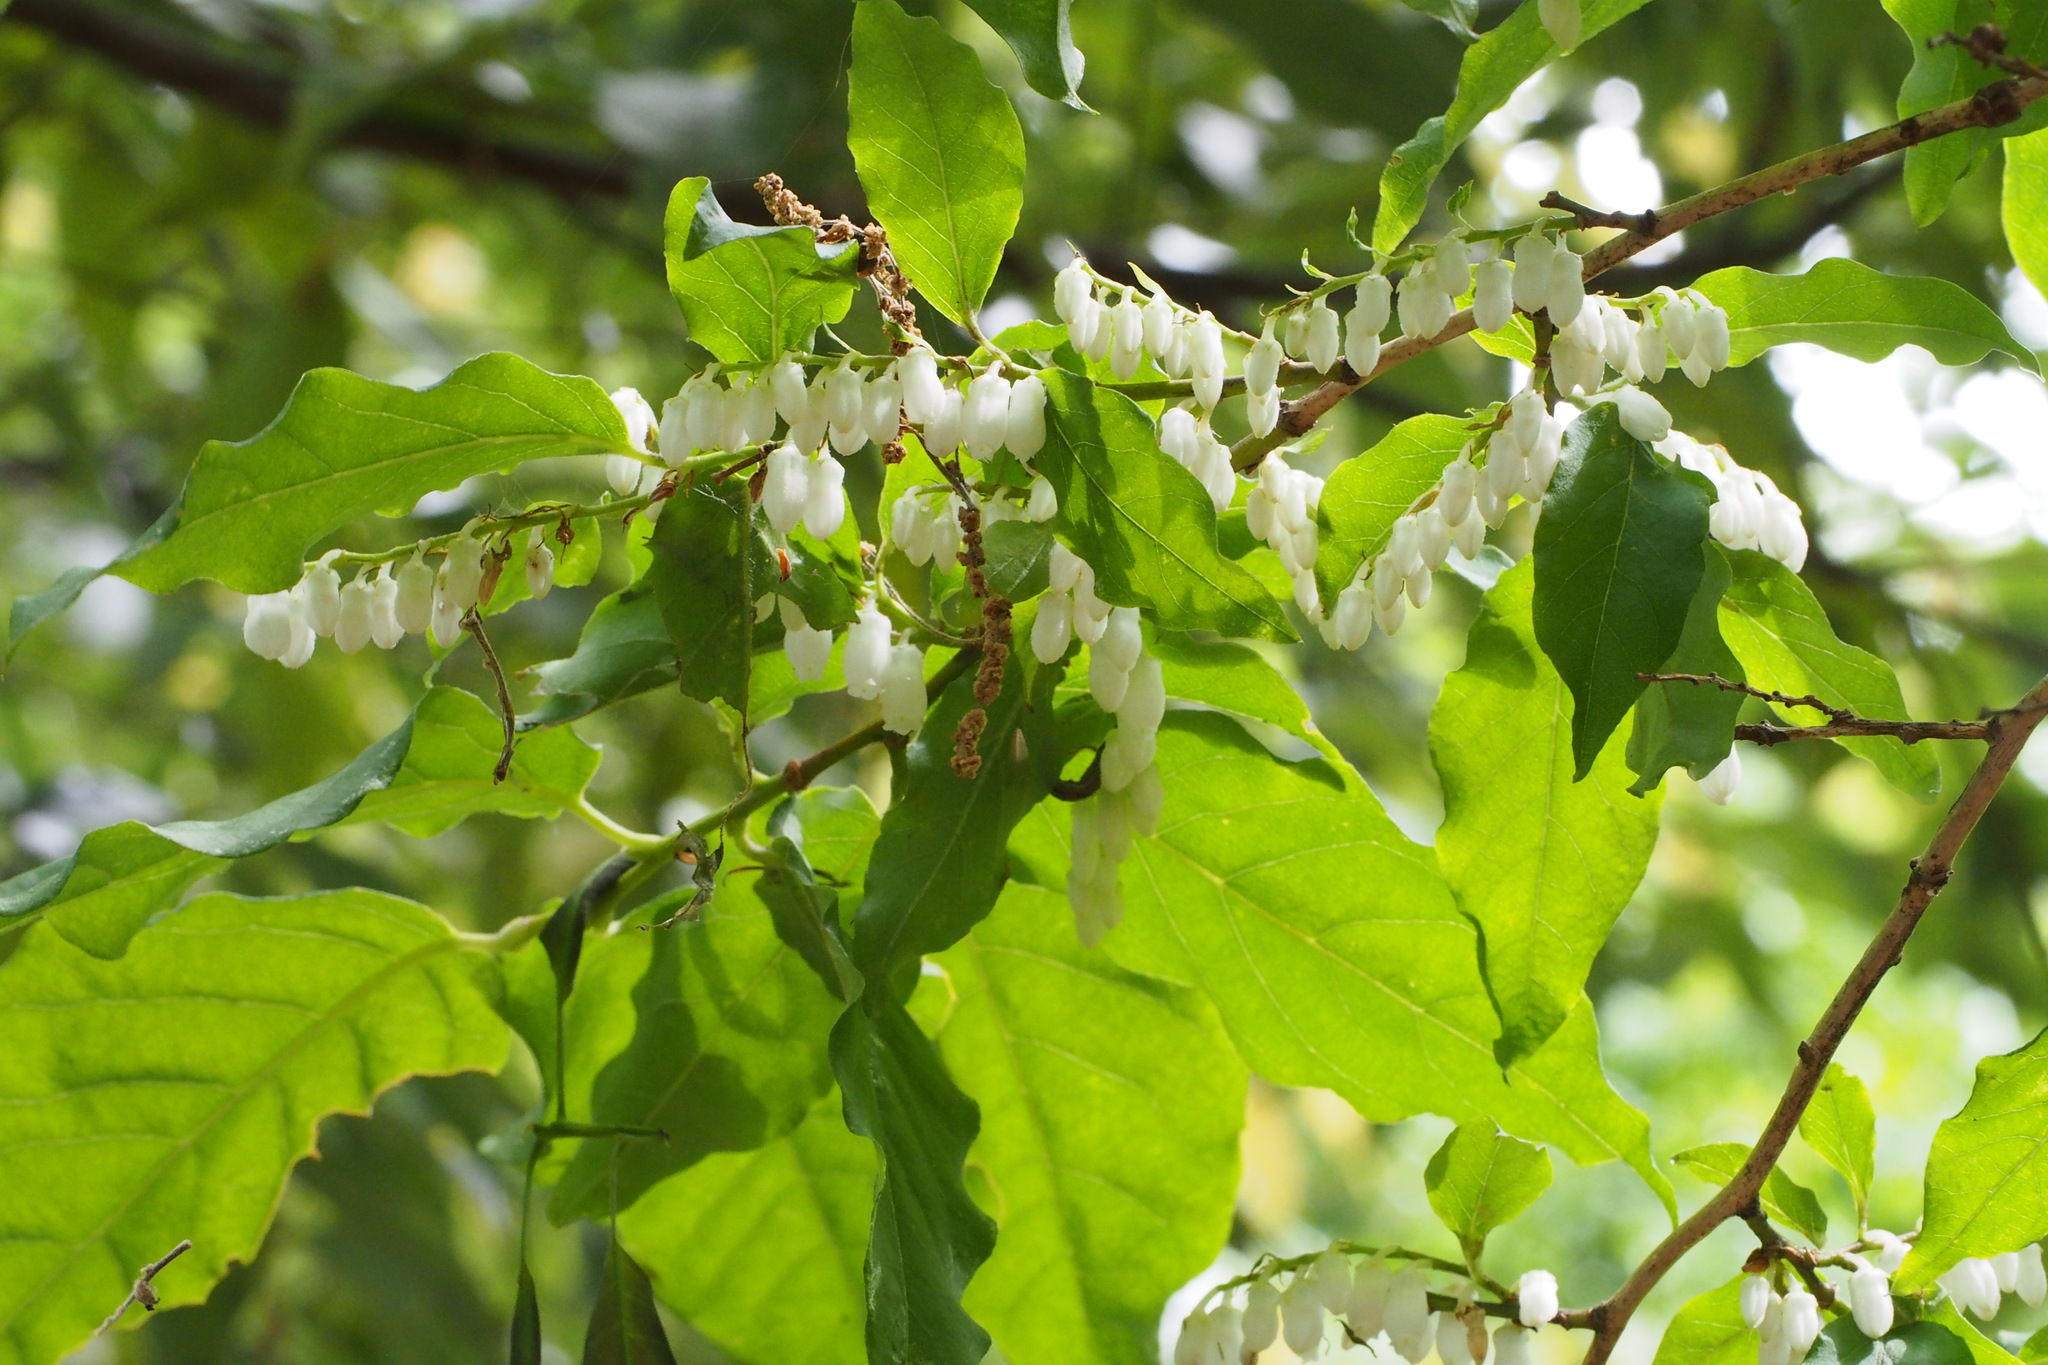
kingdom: Plantae
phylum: Tracheophyta
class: Magnoliopsida
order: Ericales
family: Ericaceae
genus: Lyonia
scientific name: Lyonia ovalifolia
